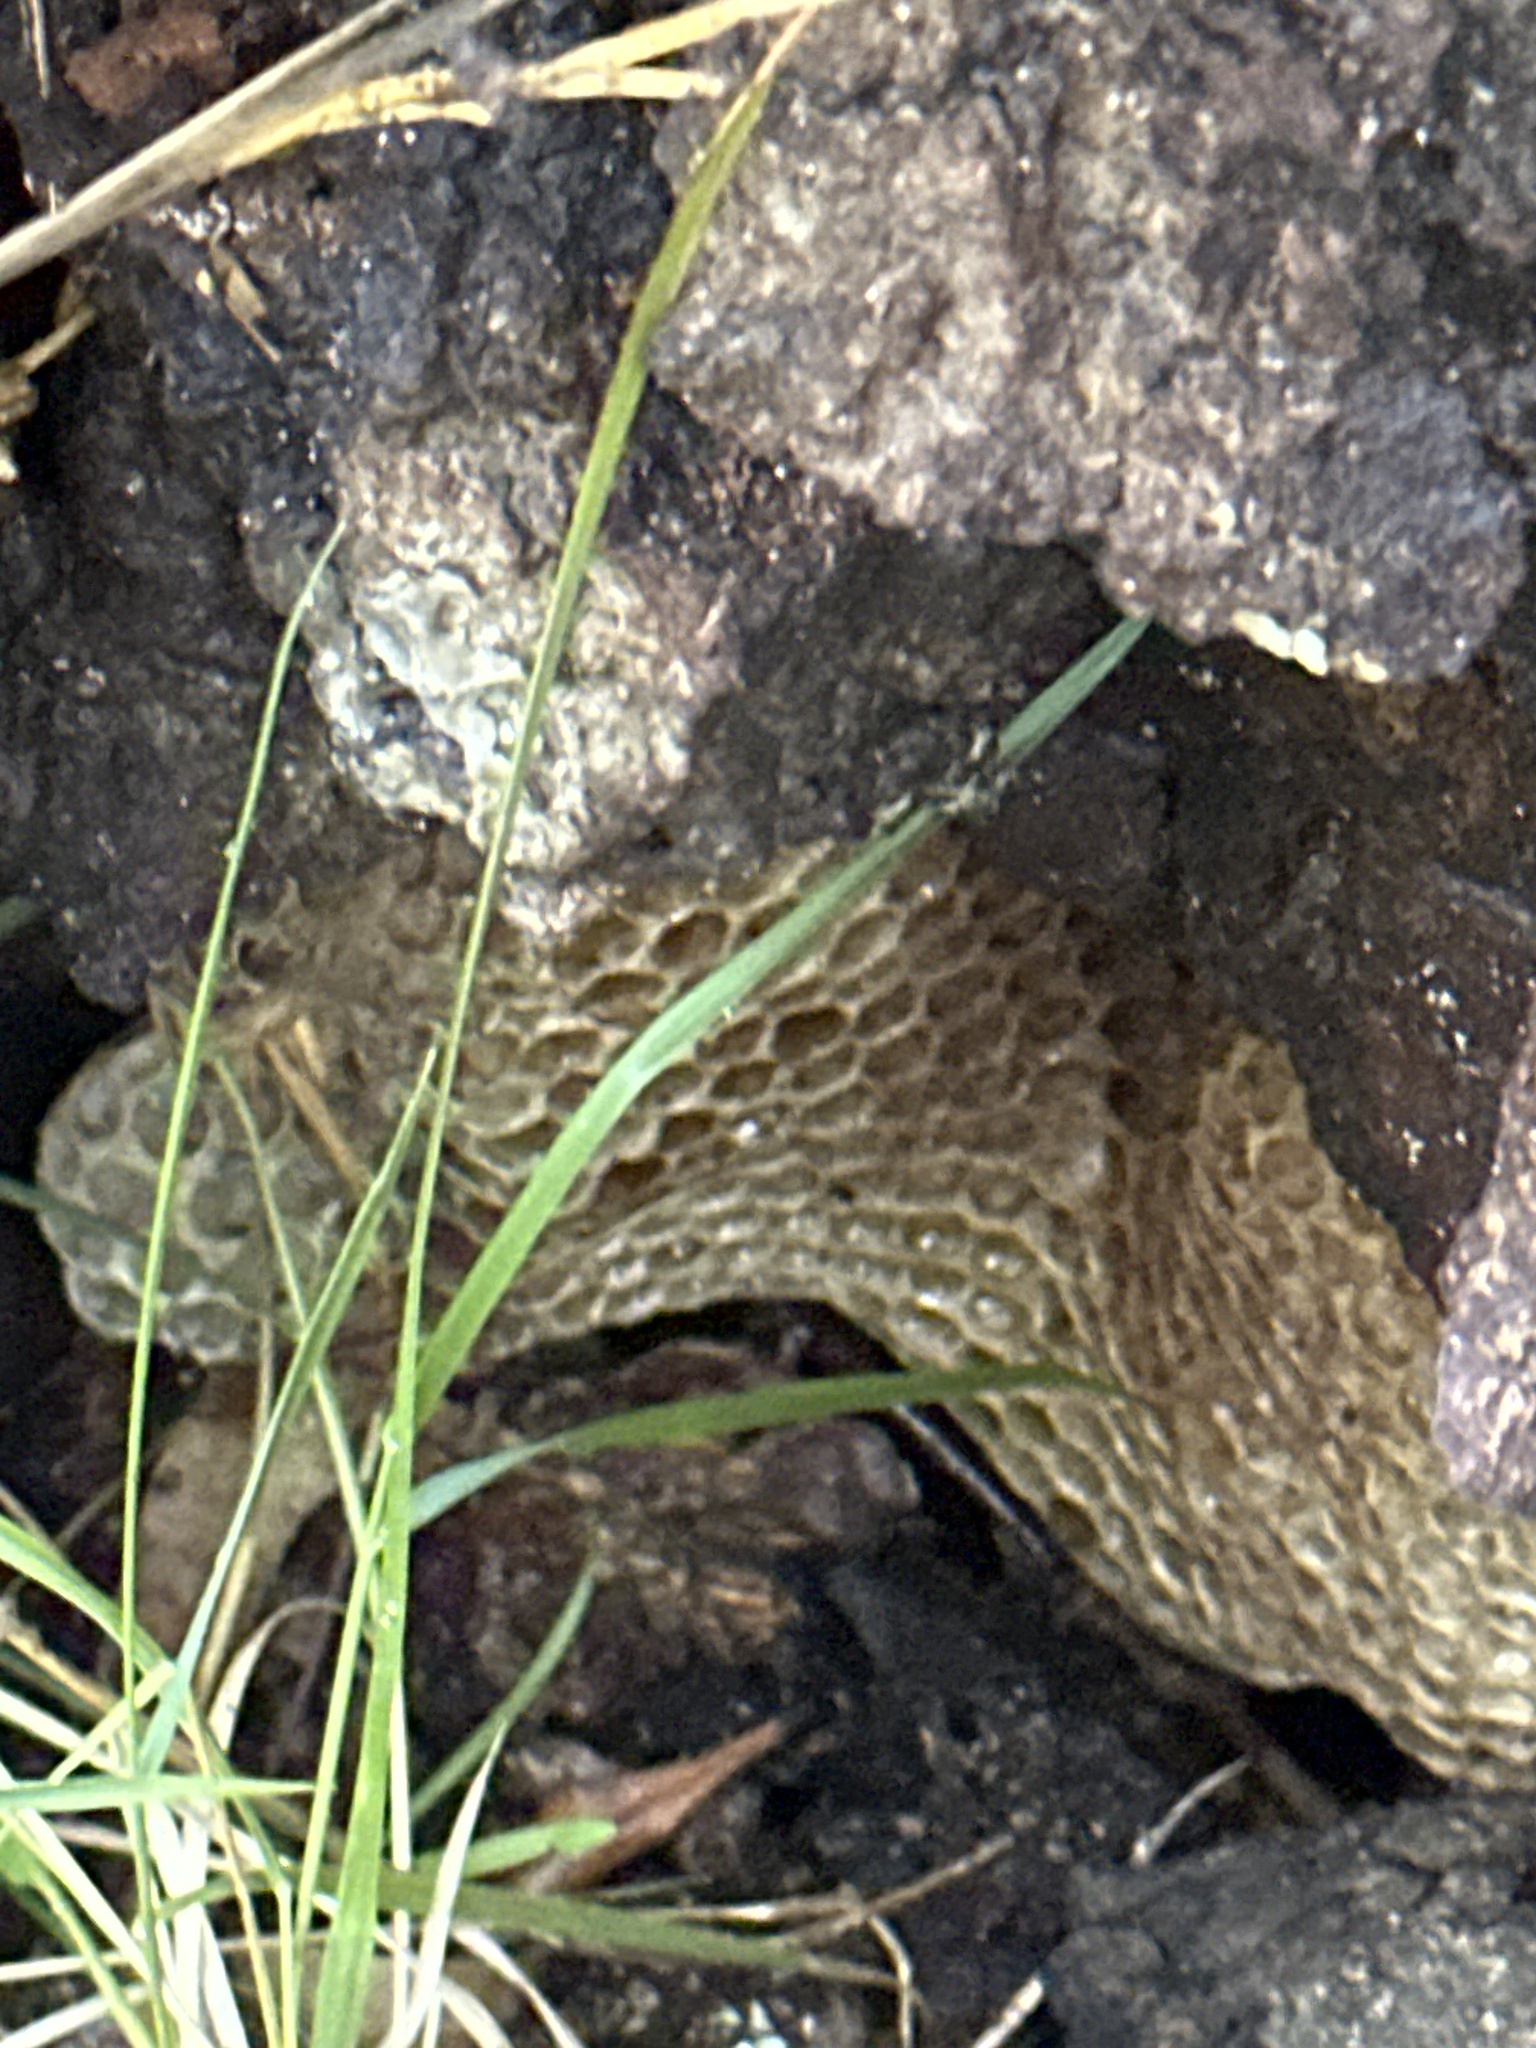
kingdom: Animalia
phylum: Arthropoda
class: Insecta
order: Hymenoptera
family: Apidae
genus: Apis
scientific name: Apis mellifera
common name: Honey bee
